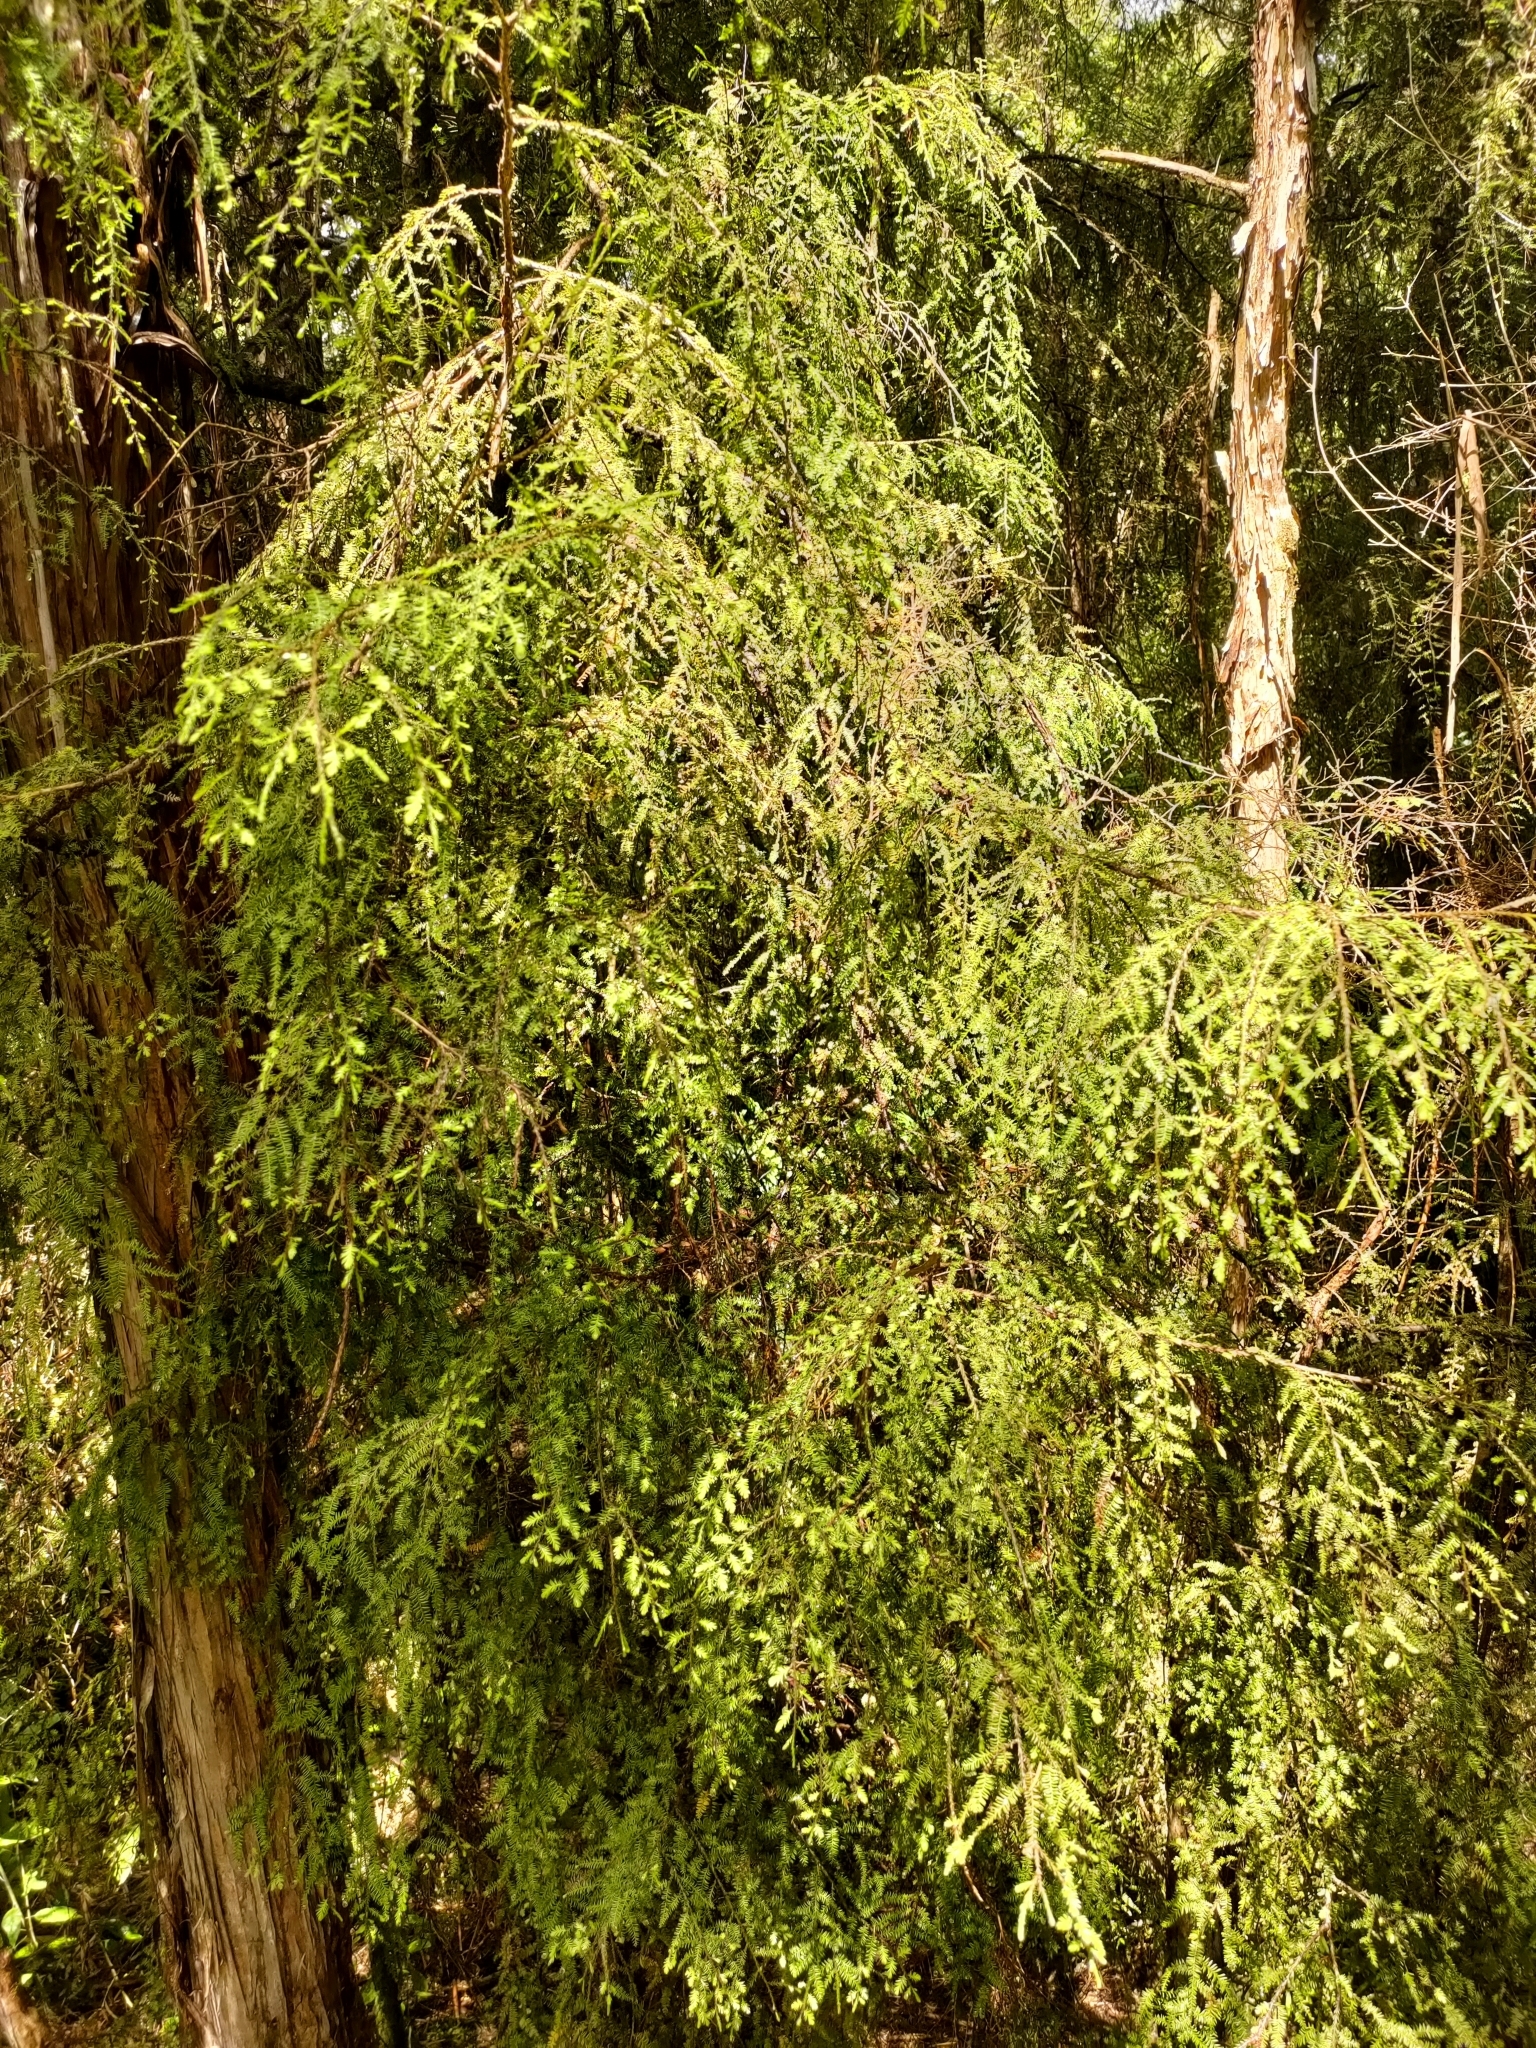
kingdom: Plantae
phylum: Tracheophyta
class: Pinopsida
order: Pinales
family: Podocarpaceae
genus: Dacrycarpus
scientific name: Dacrycarpus dacrydioides
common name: White pine
